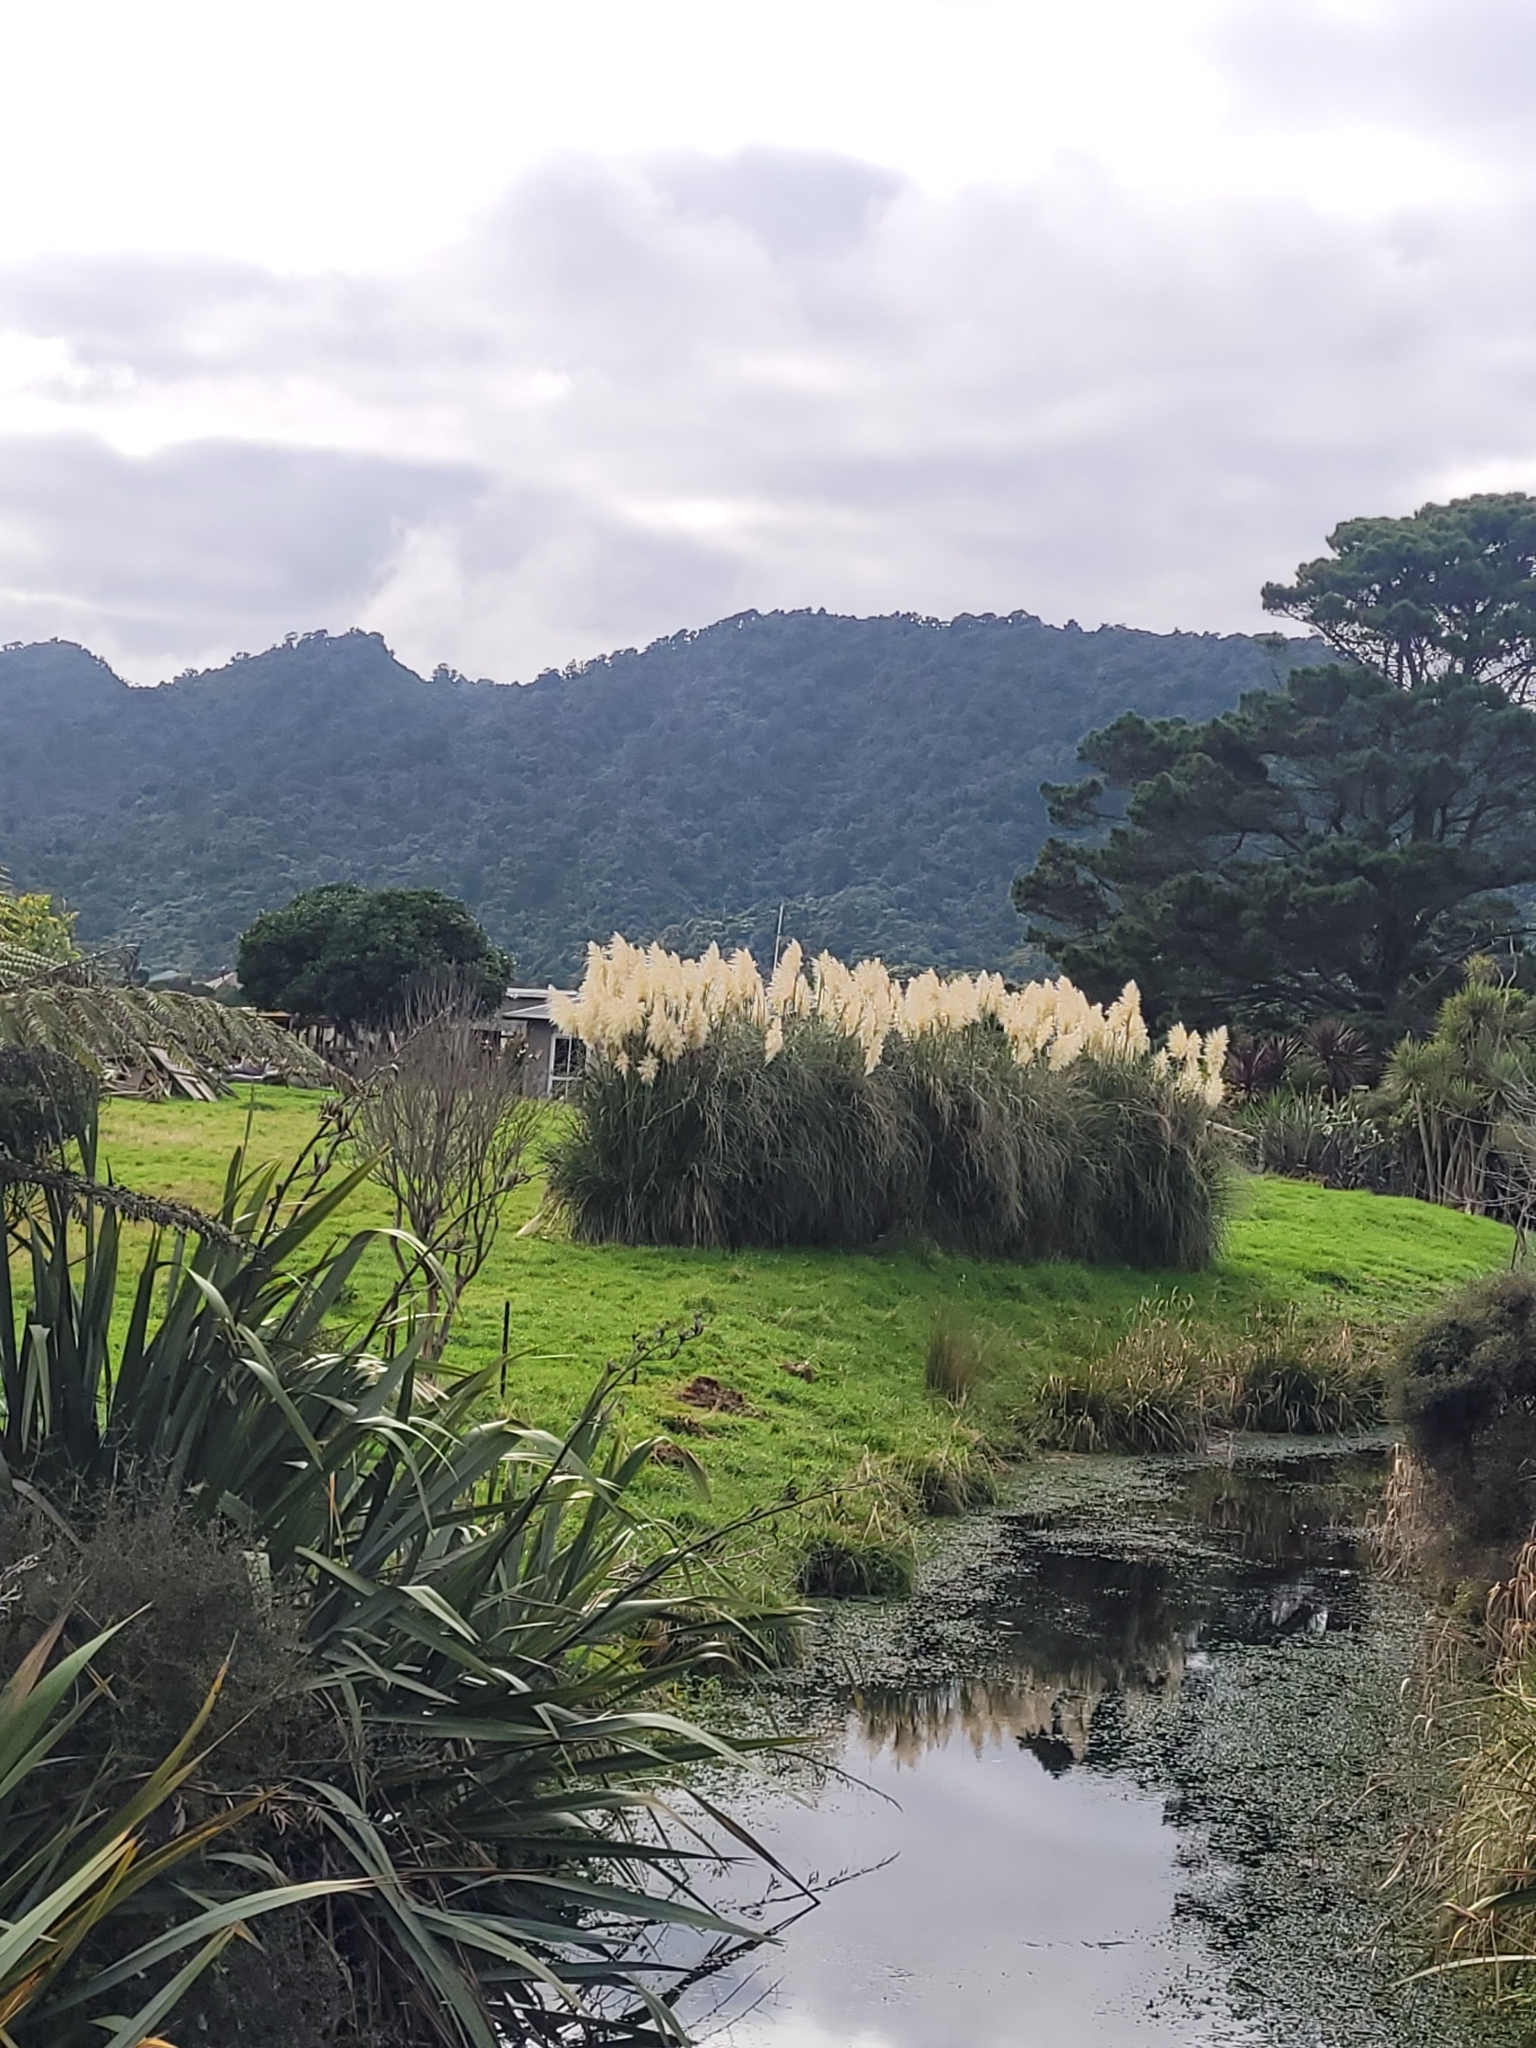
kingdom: Plantae
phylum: Tracheophyta
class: Liliopsida
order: Poales
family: Poaceae
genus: Cortaderia
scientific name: Cortaderia selloana
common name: Uruguayan pampas grass
